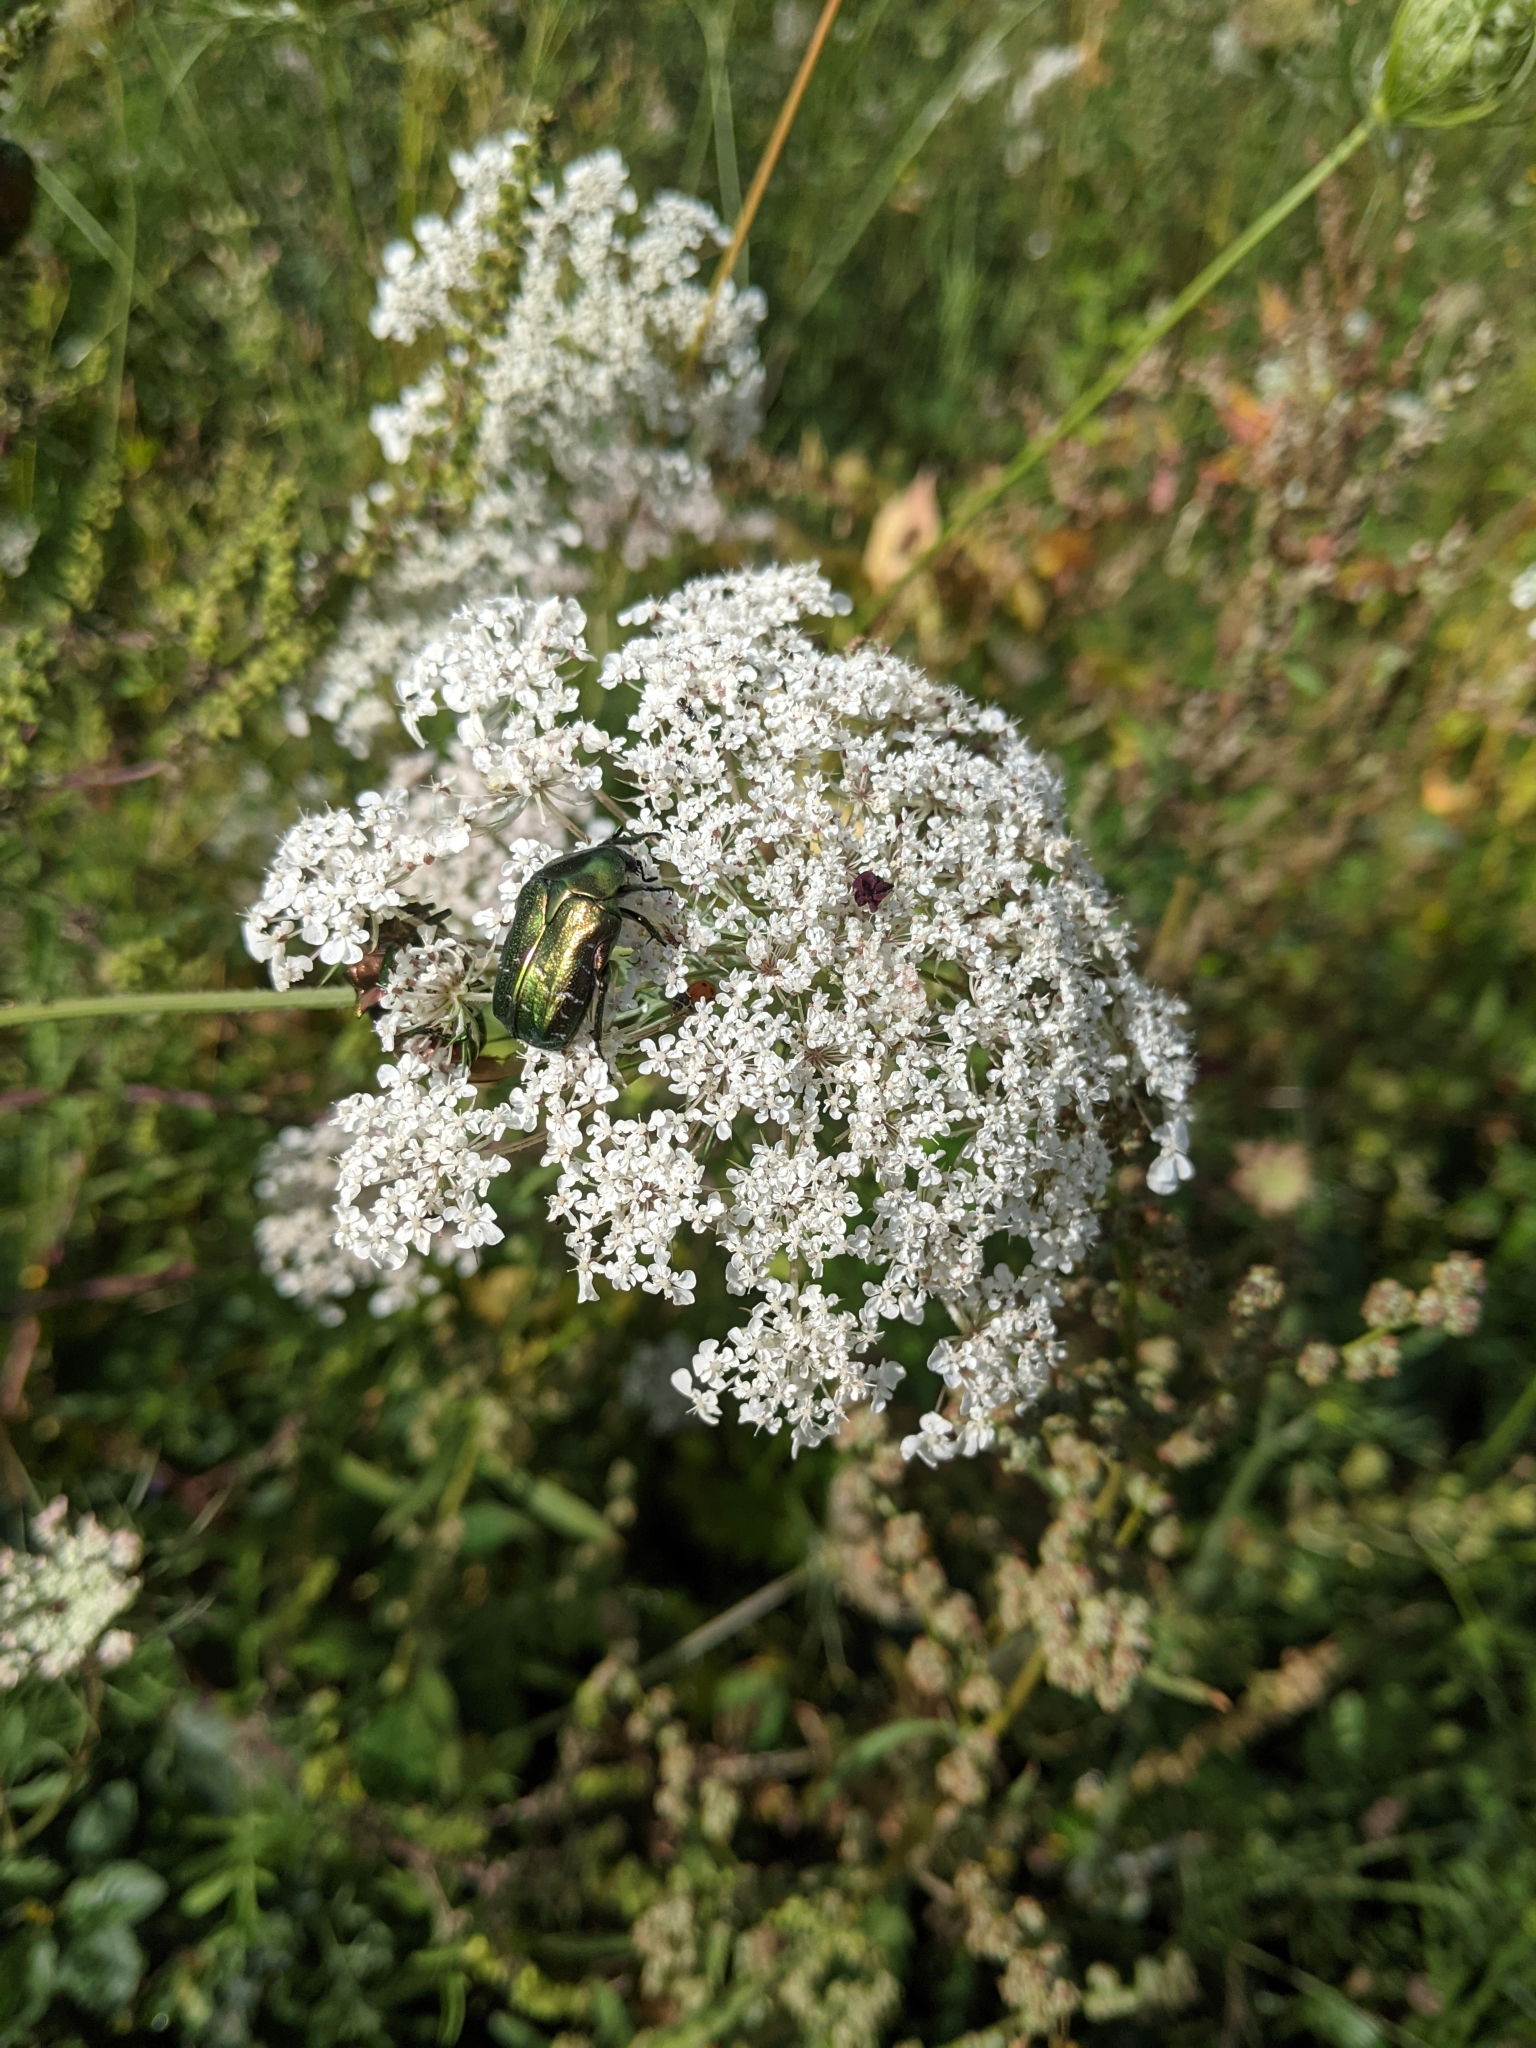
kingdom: Animalia
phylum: Arthropoda
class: Insecta
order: Coleoptera
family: Scarabaeidae
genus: Cetonia
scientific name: Cetonia aurata
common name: Rose chafer
